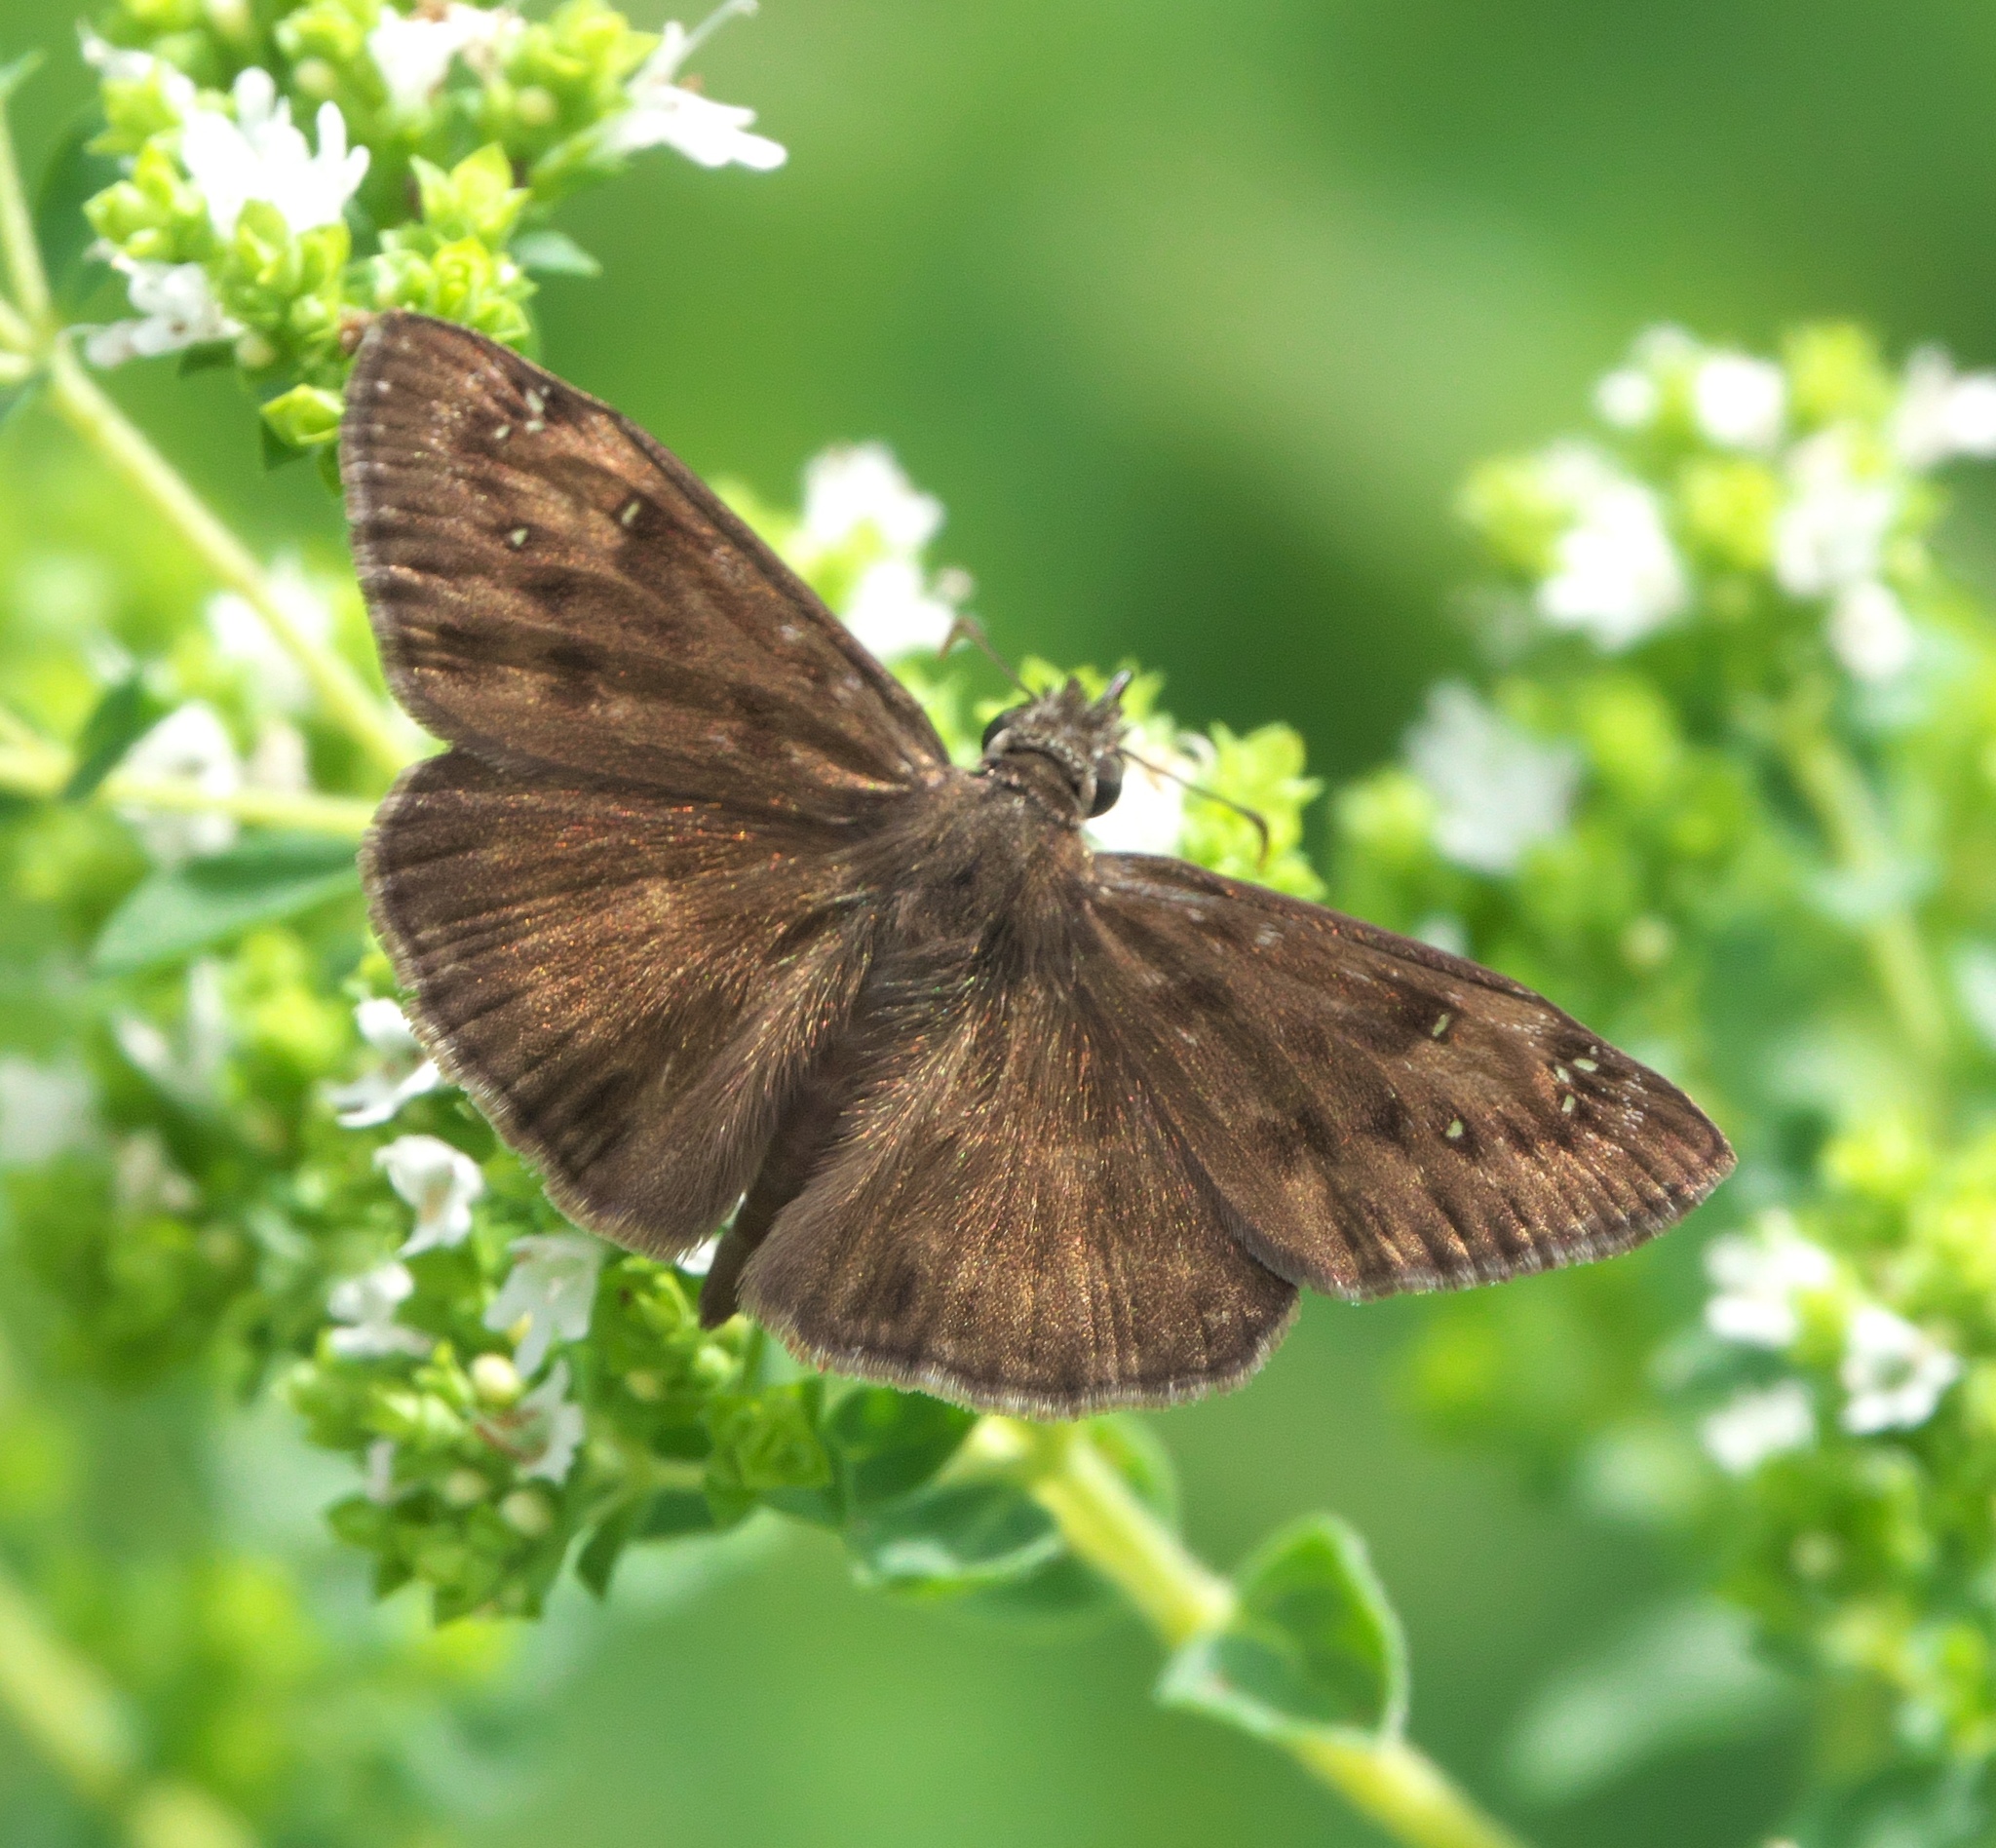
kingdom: Animalia
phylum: Arthropoda
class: Insecta
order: Lepidoptera
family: Hesperiidae
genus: Erynnis
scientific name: Erynnis horatius
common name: Horace's duskywing
